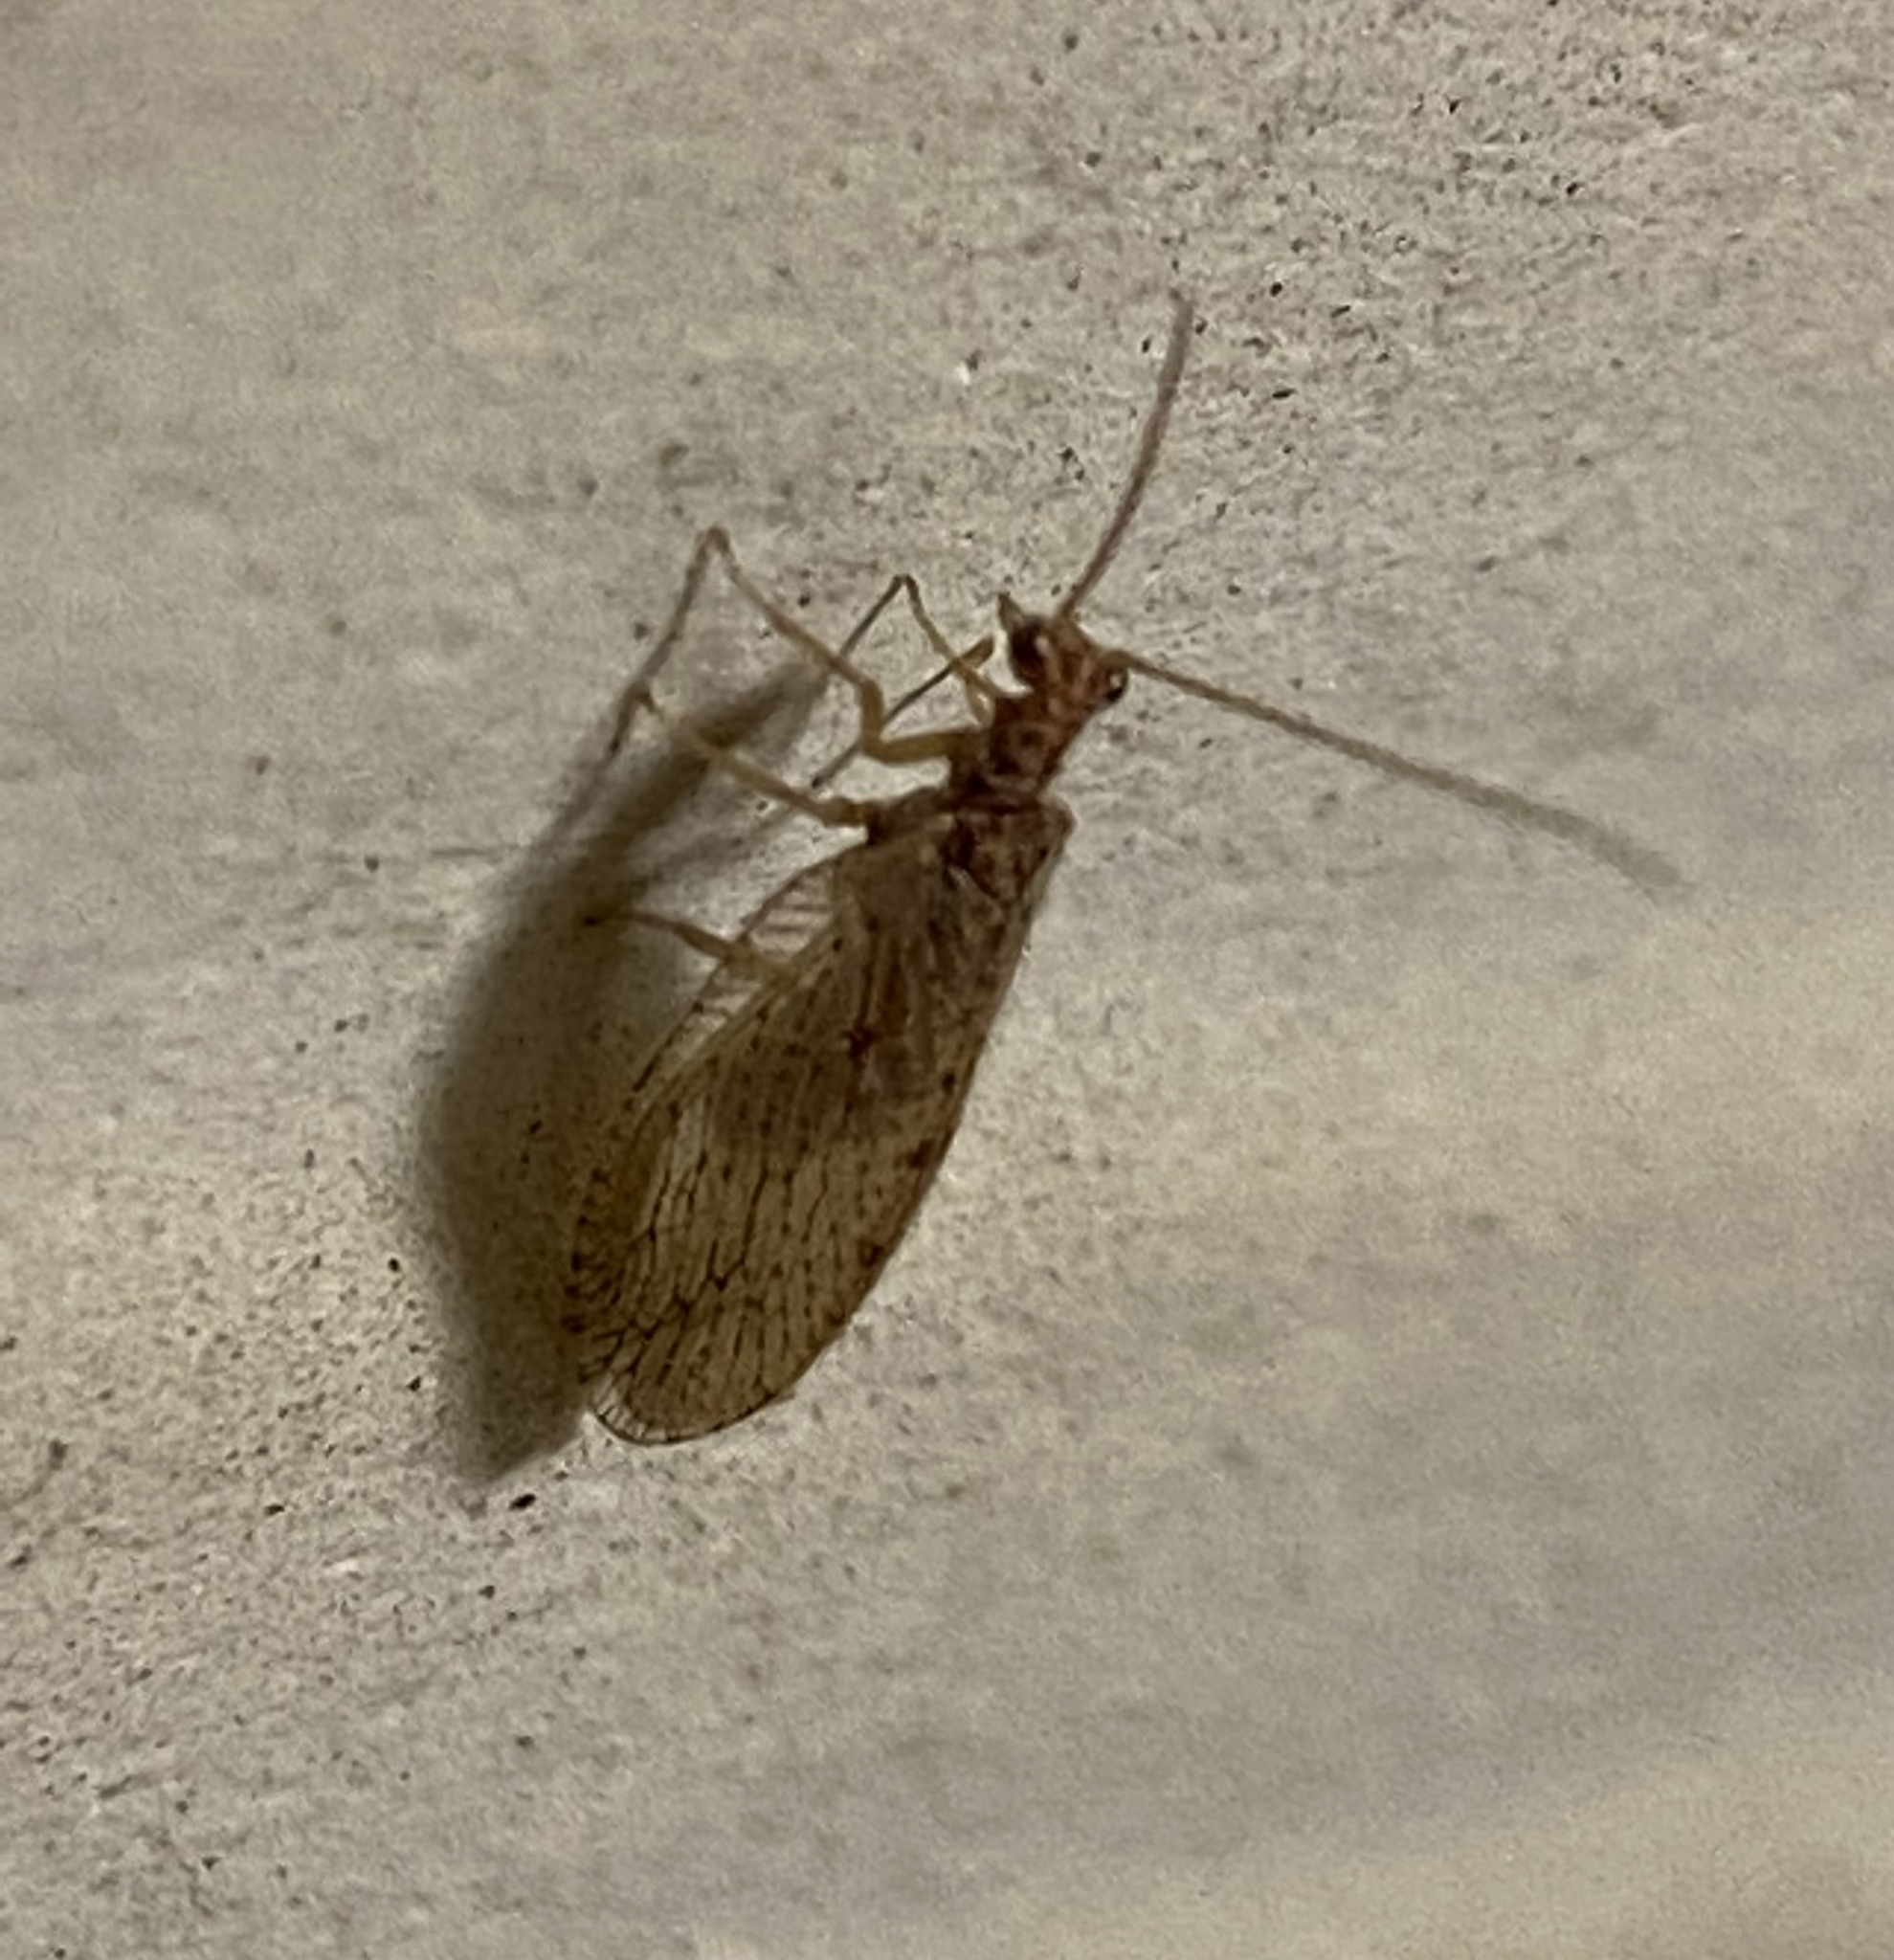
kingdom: Animalia
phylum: Arthropoda
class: Insecta
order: Neuroptera
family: Hemerobiidae
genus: Micromus
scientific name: Micromus subanticus
